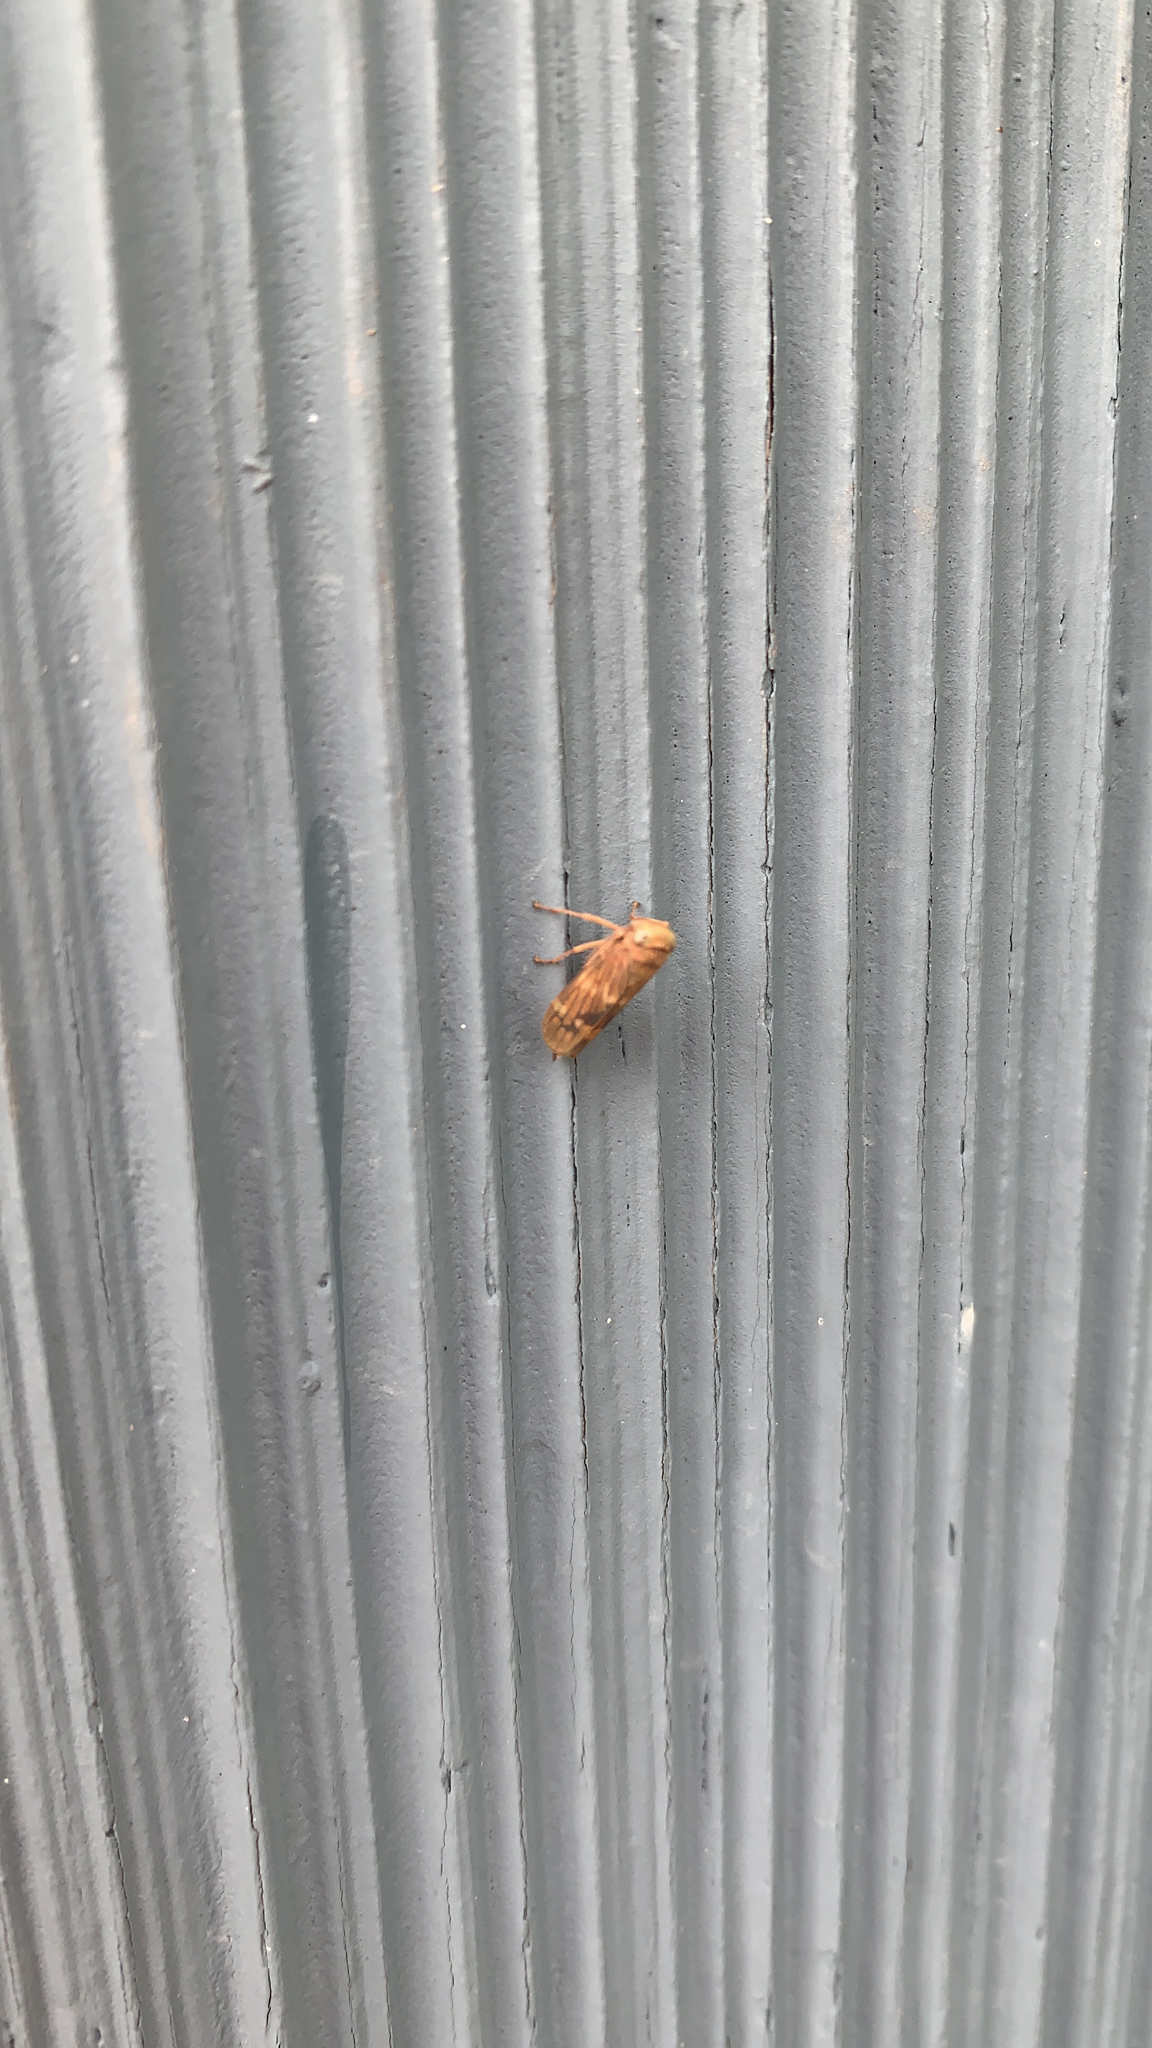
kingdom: Animalia
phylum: Arthropoda
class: Insecta
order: Hemiptera
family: Cicadellidae
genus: Jikradia
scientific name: Jikradia olitoria
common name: Coppery leafhopper
